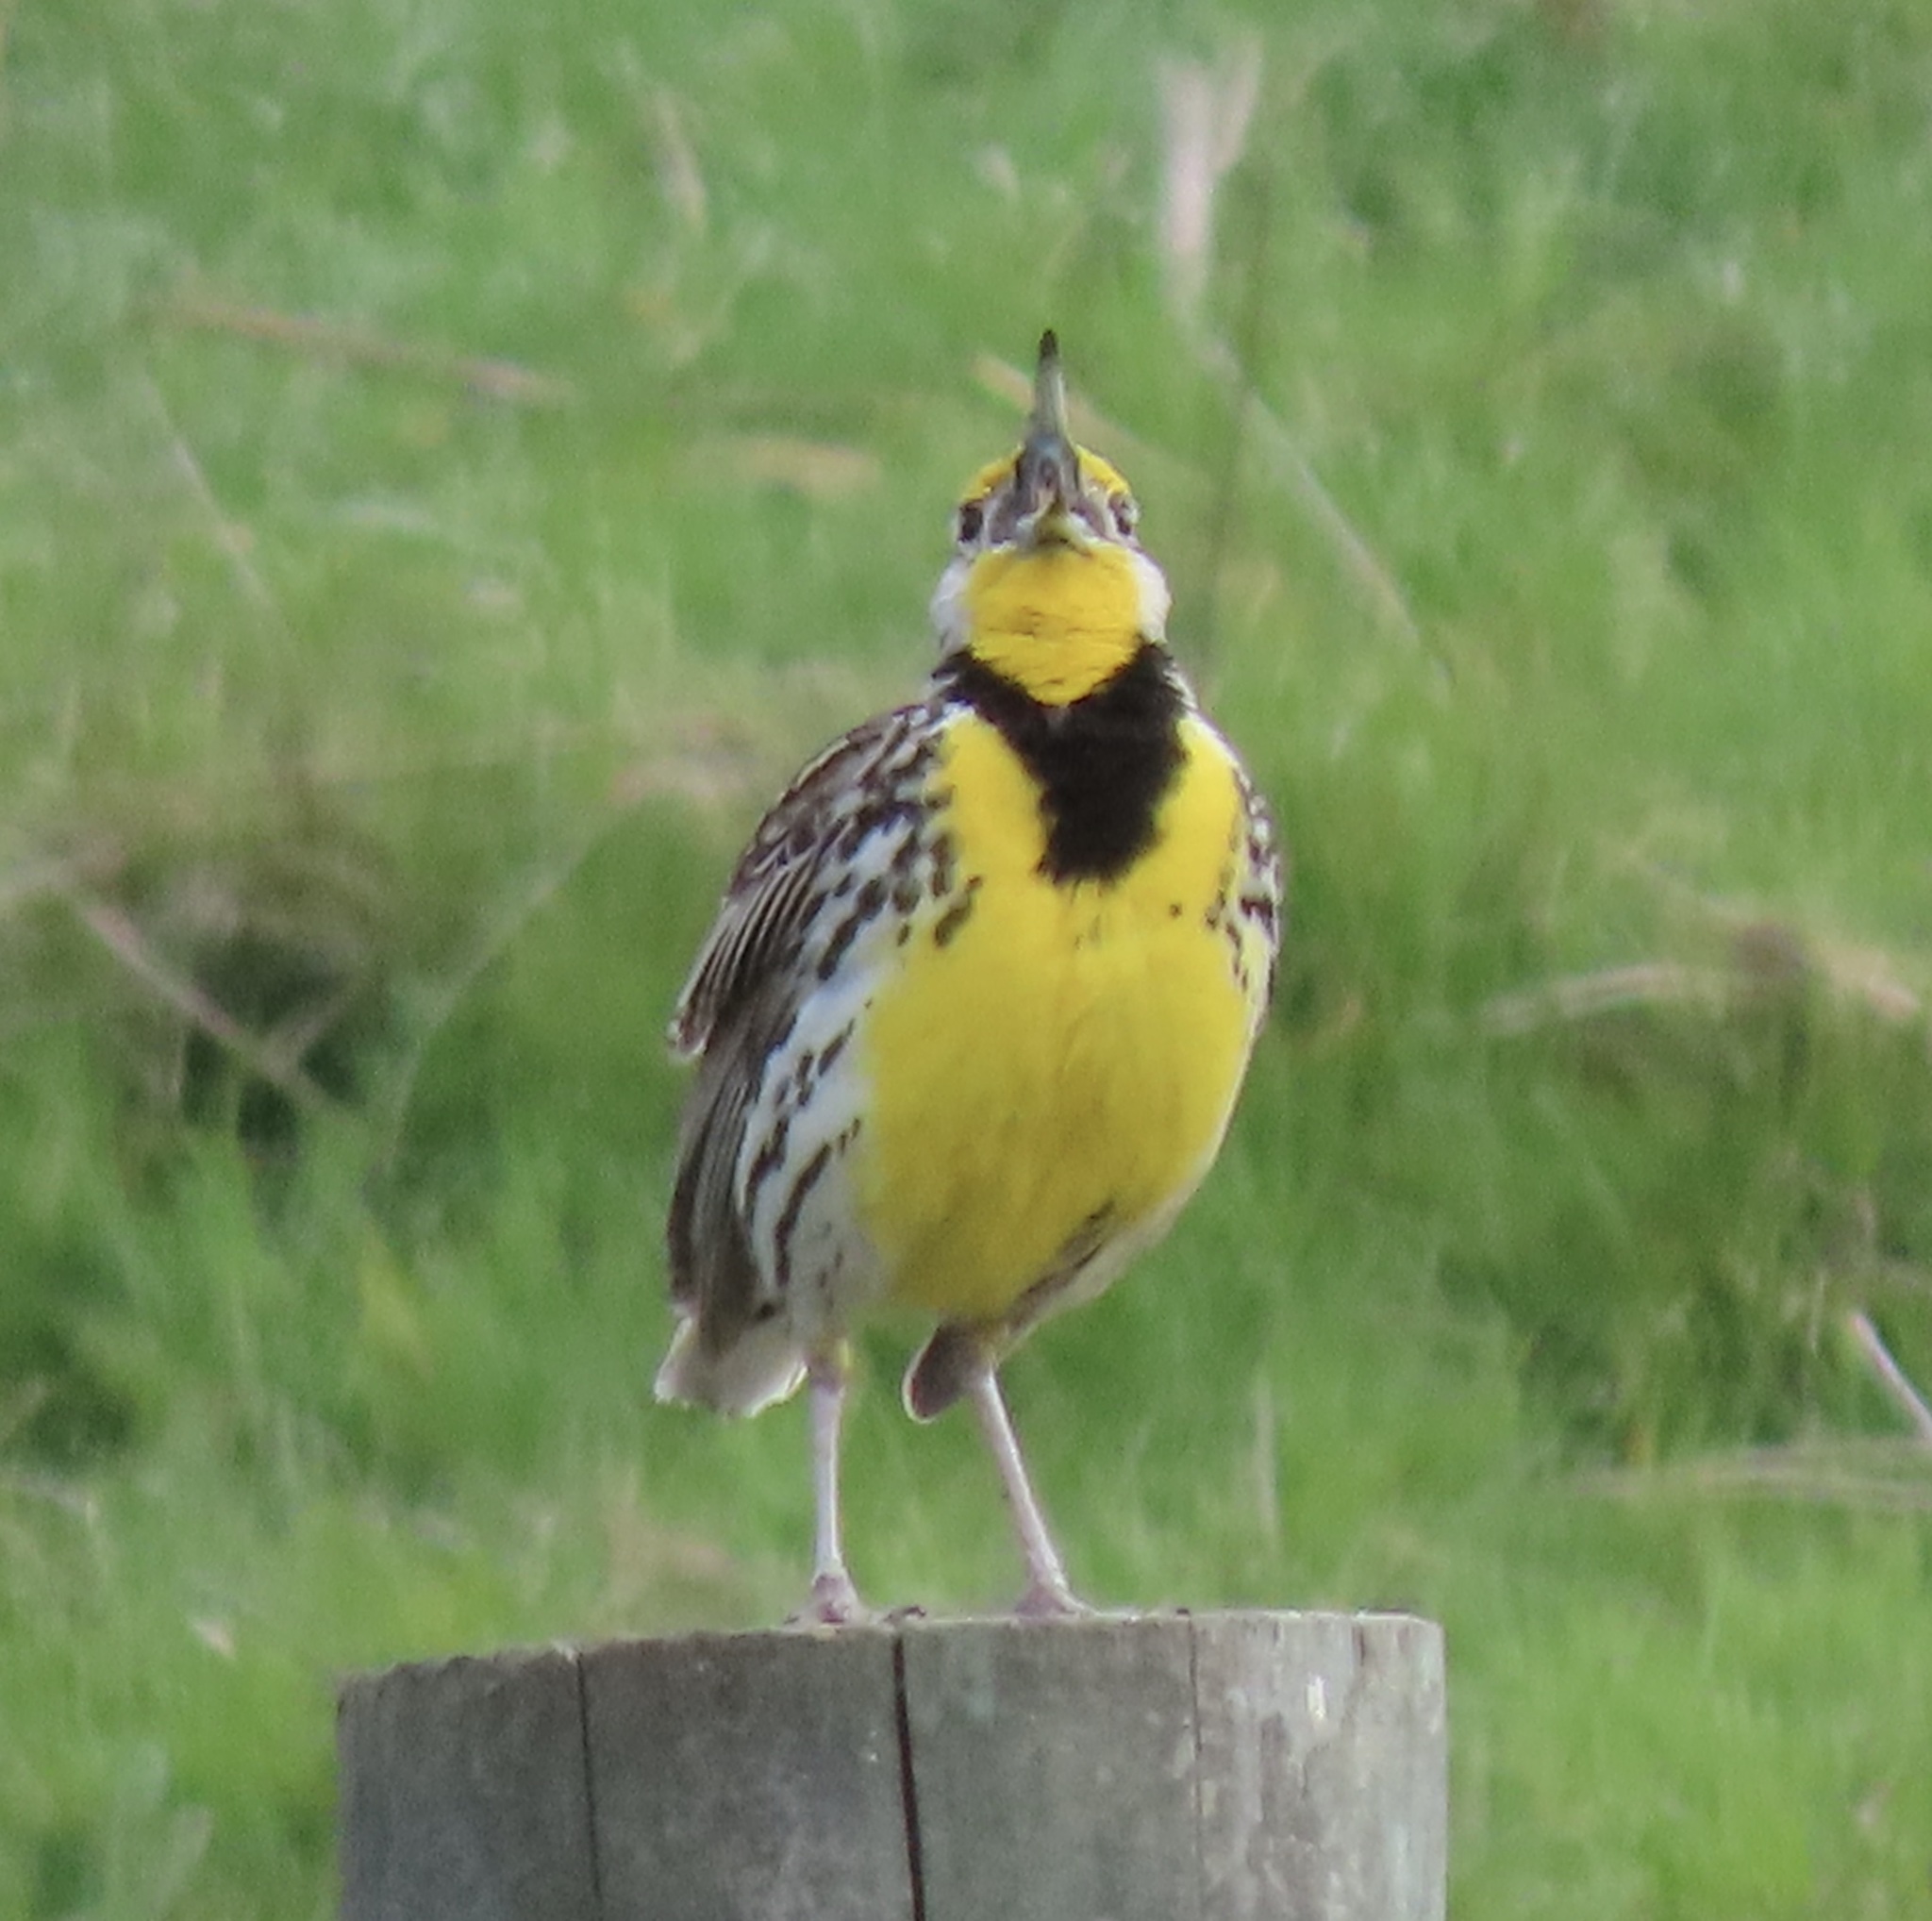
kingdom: Animalia
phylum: Chordata
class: Aves
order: Passeriformes
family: Icteridae
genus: Sturnella
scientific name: Sturnella neglecta
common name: Western meadowlark
